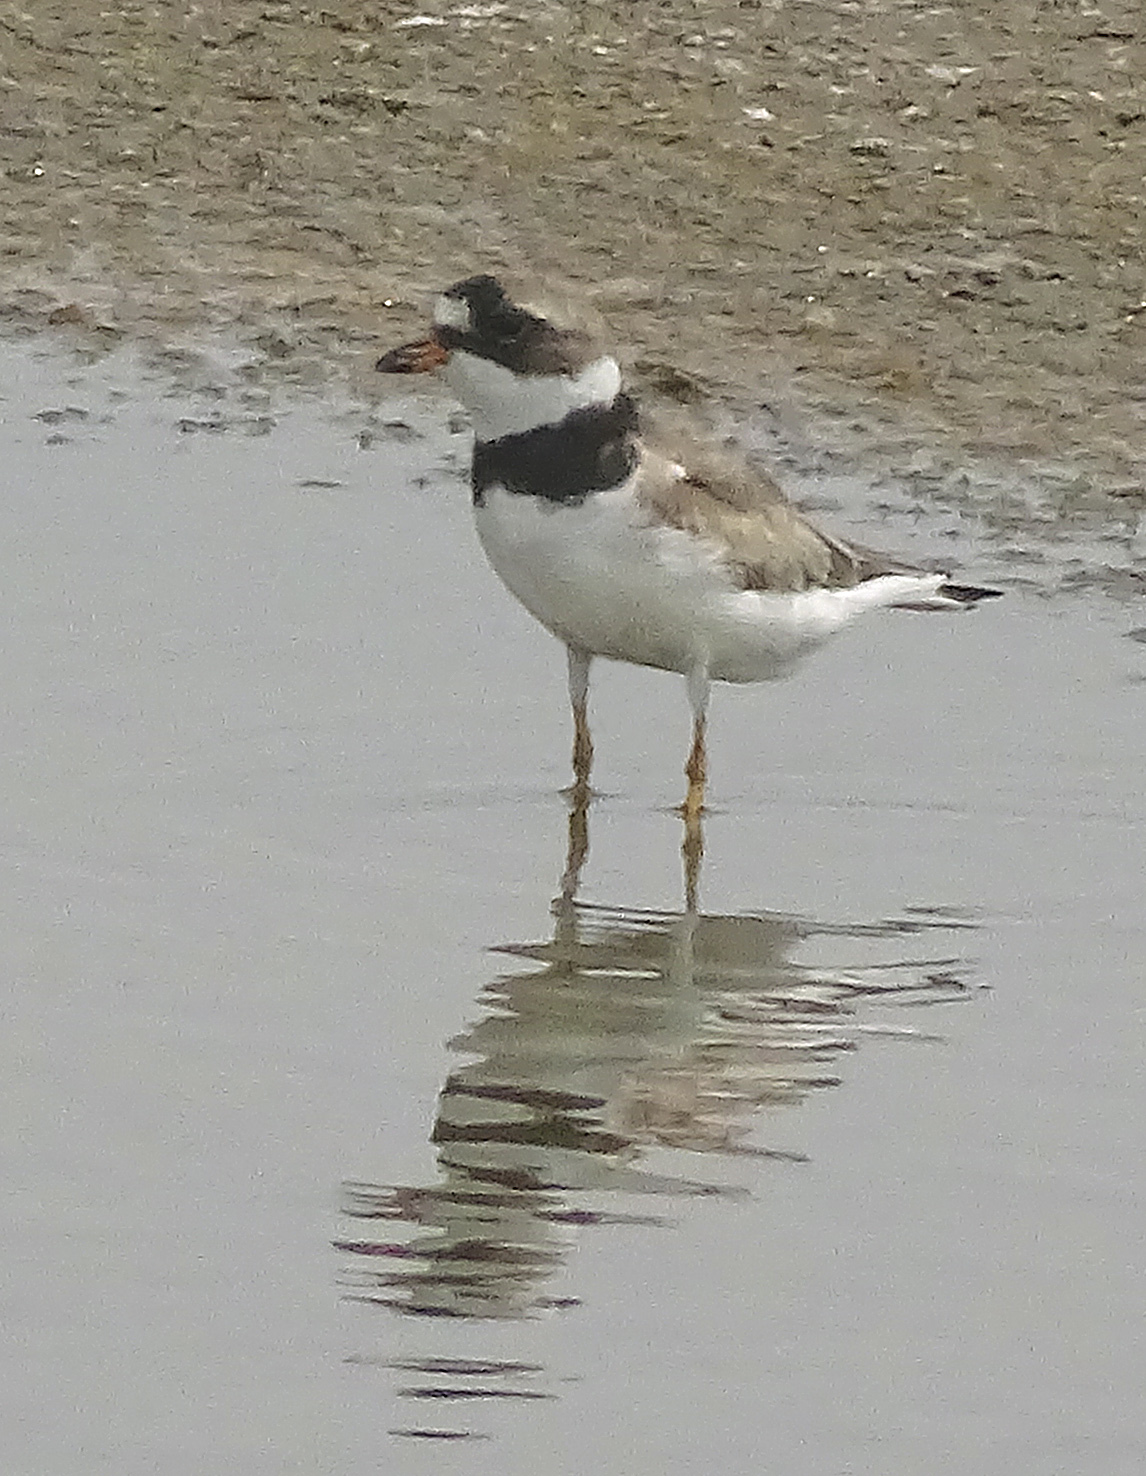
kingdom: Animalia
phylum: Chordata
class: Aves
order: Charadriiformes
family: Charadriidae
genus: Charadrius
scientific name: Charadrius semipalmatus
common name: Semipalmated plover
